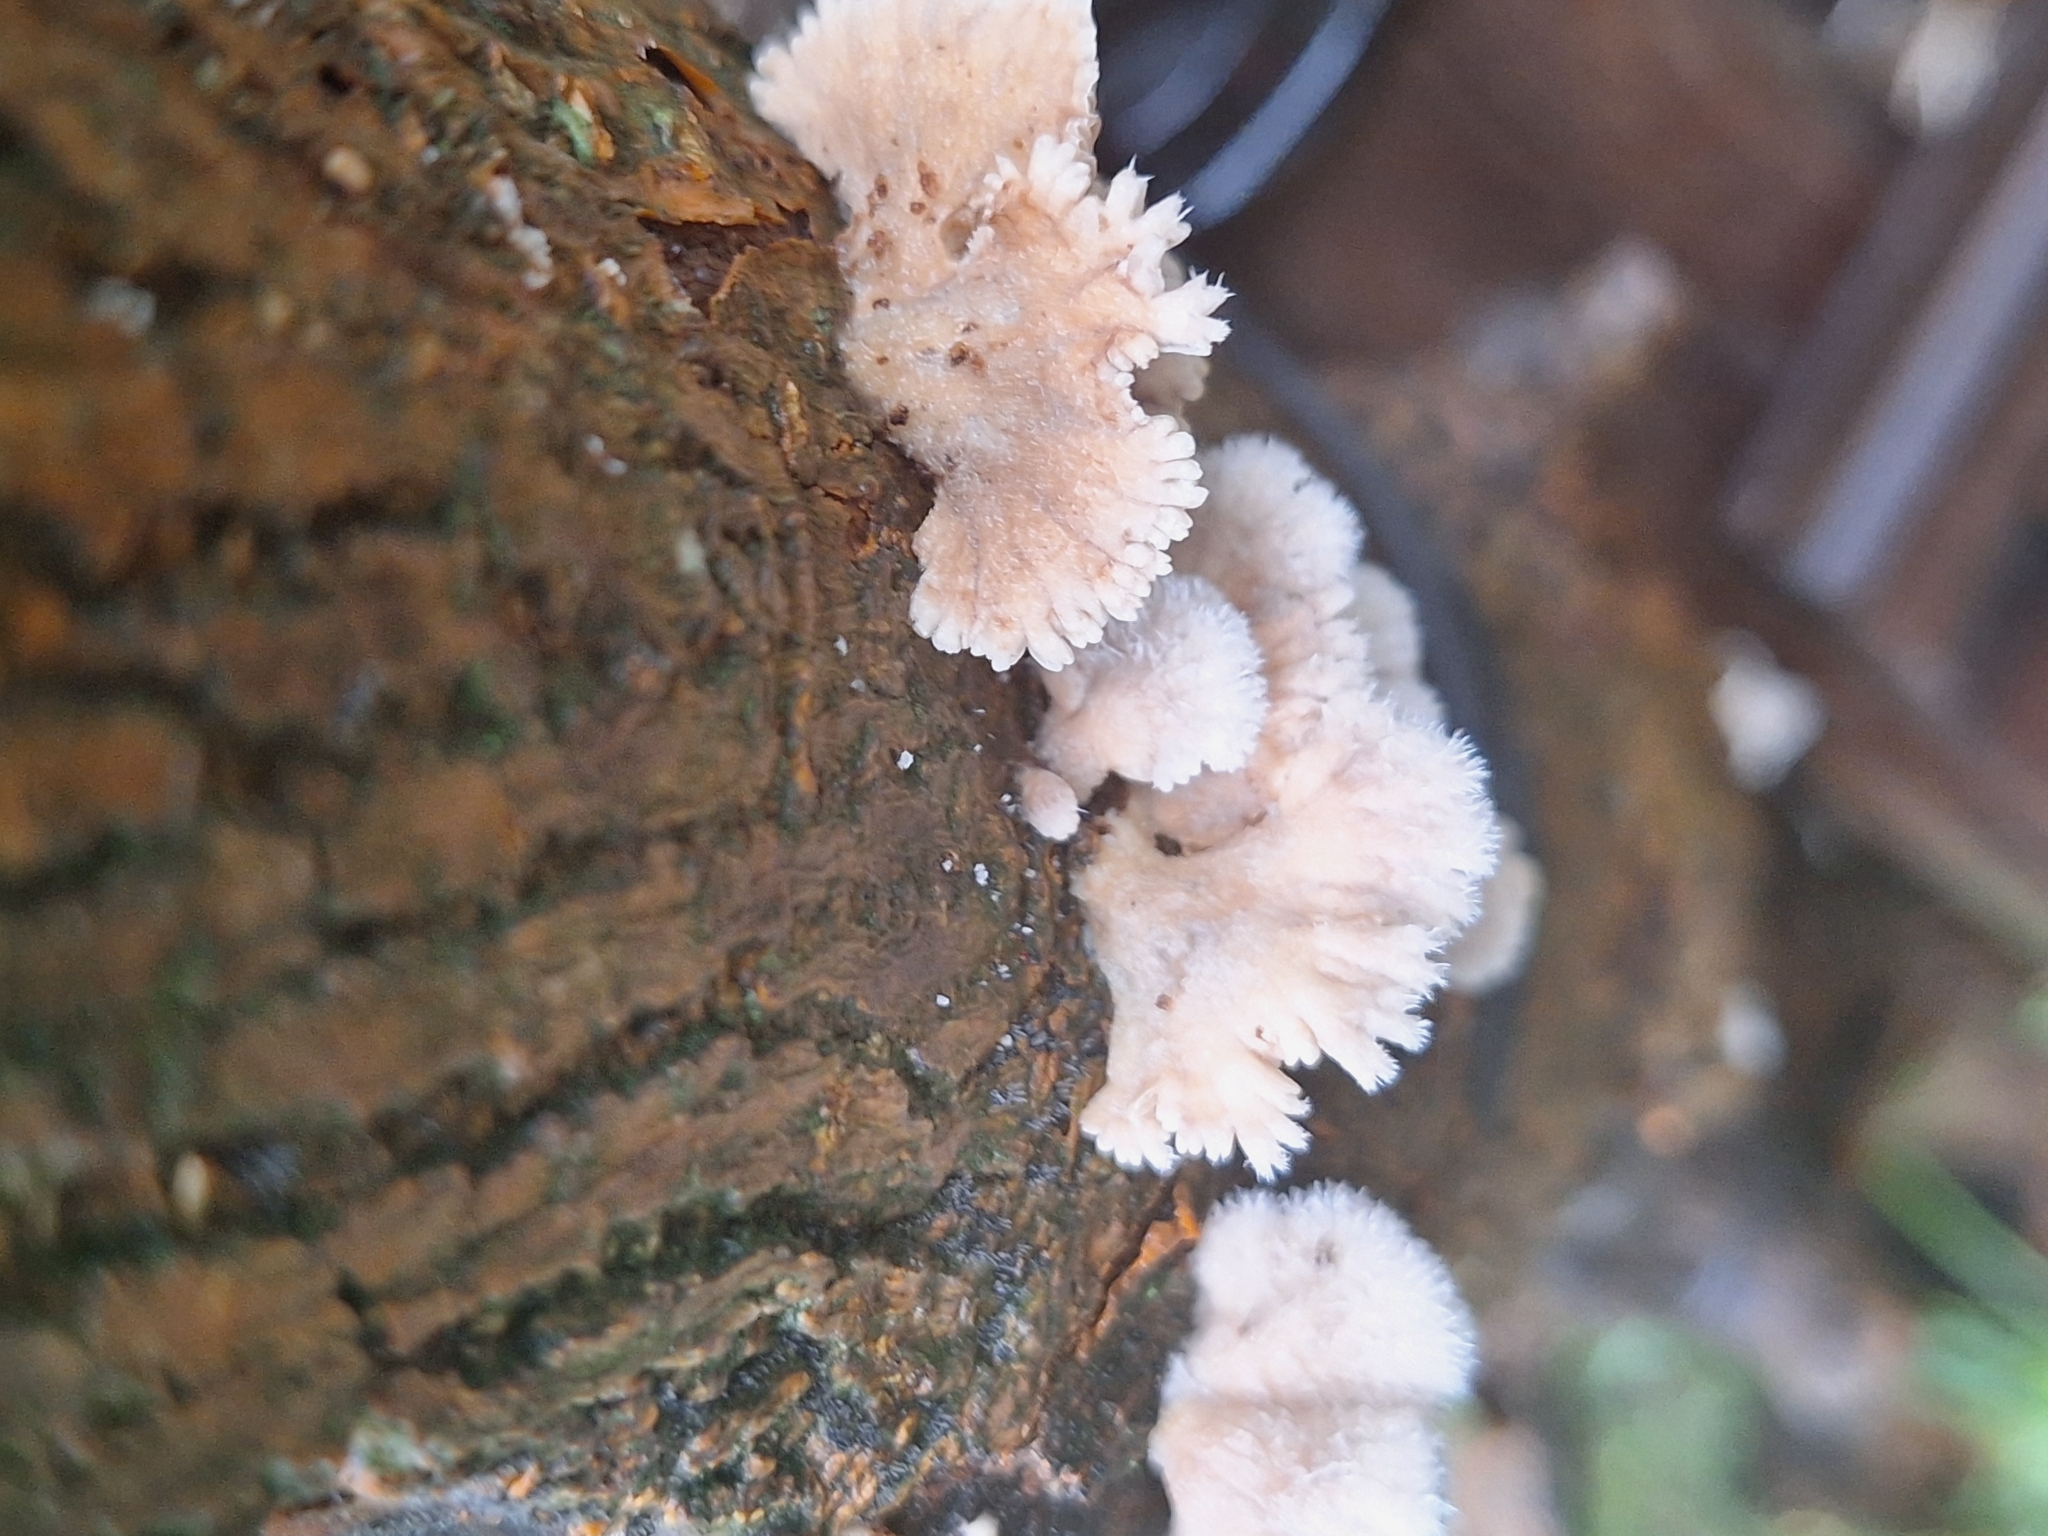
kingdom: Fungi
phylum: Basidiomycota
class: Agaricomycetes
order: Agaricales
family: Schizophyllaceae
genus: Schizophyllum
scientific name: Schizophyllum commune
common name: Common porecrust
